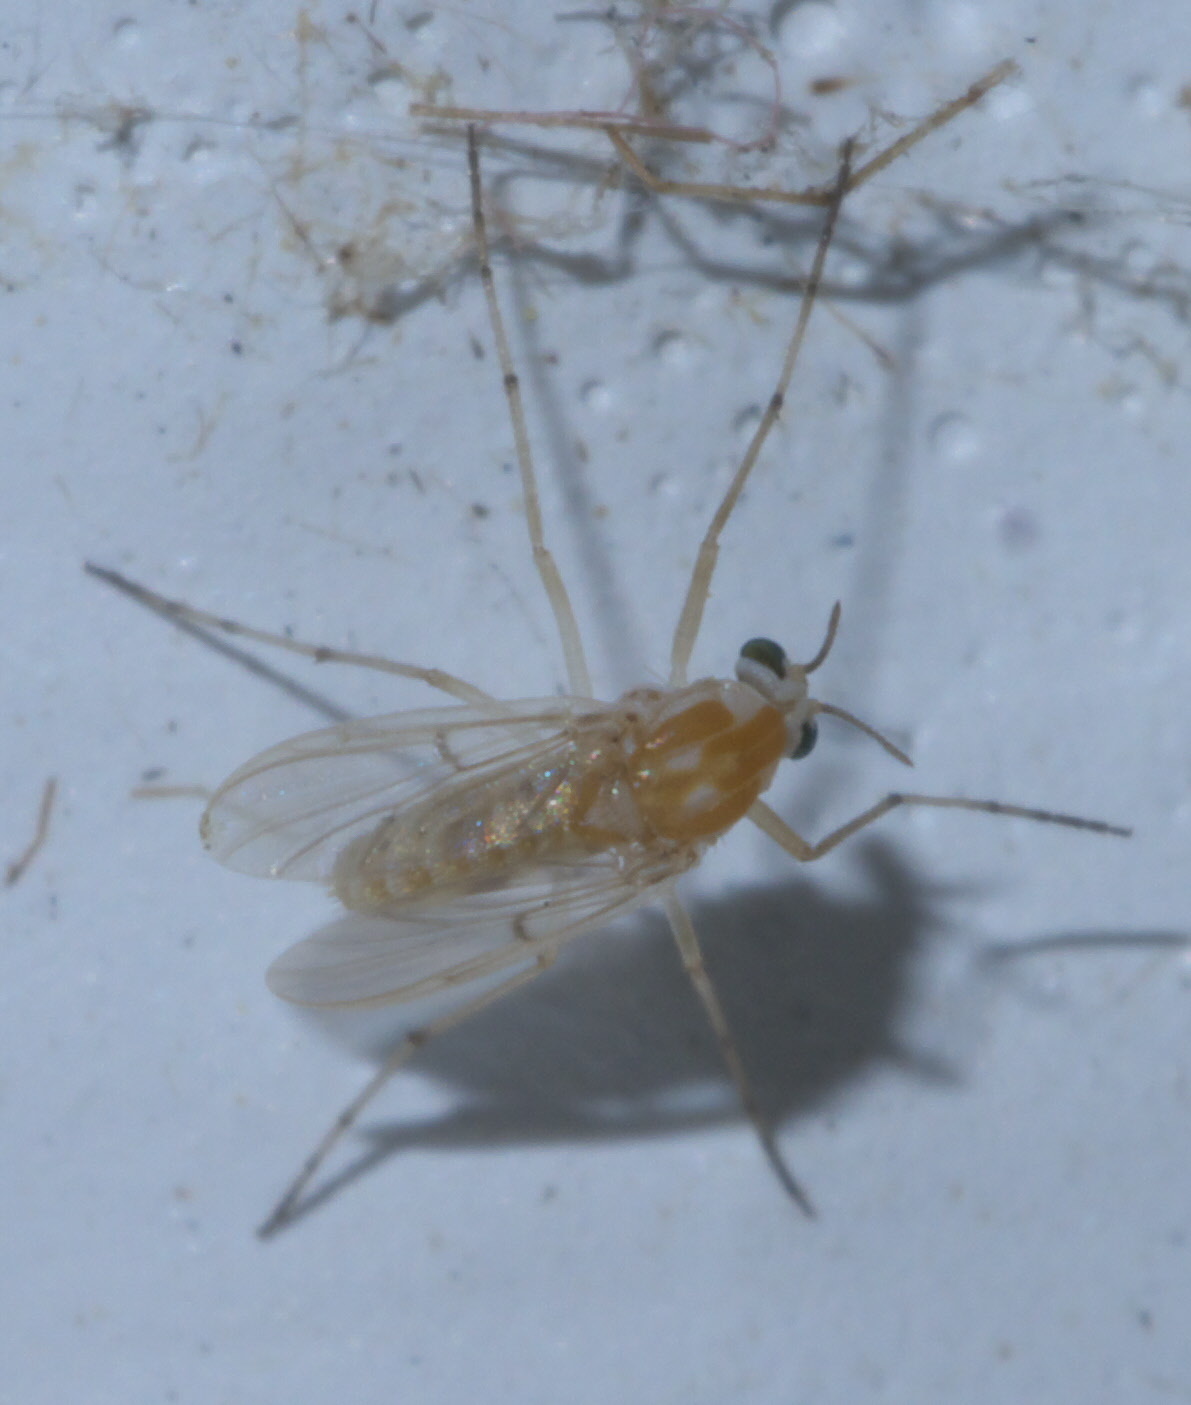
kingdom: Animalia
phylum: Arthropoda
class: Insecta
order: Diptera
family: Chironomidae
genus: Procladius
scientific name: Procladius bellus
